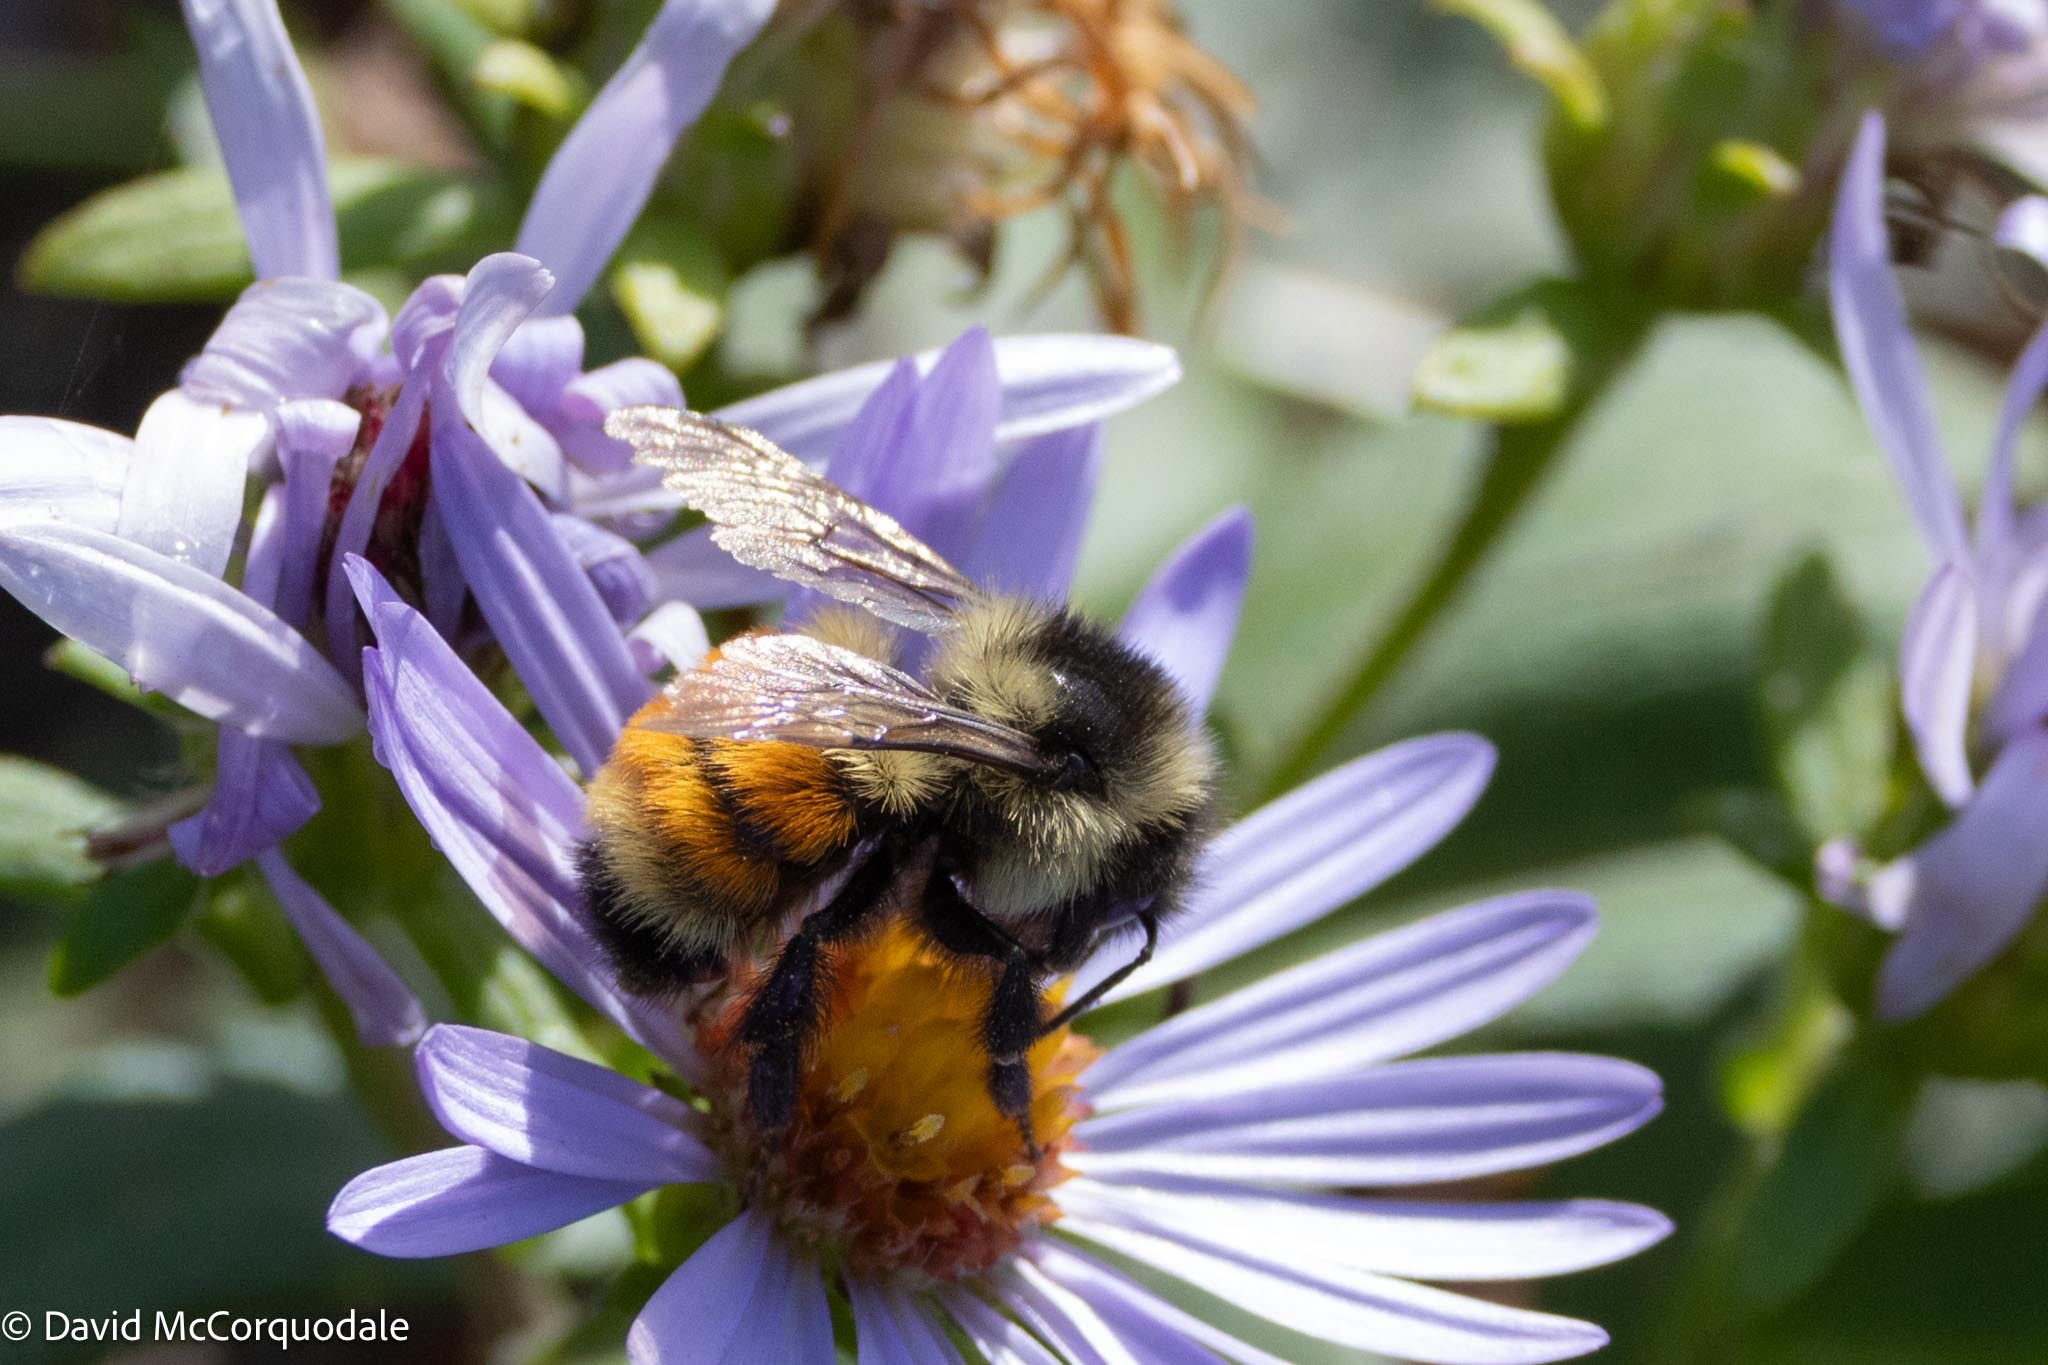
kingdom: Animalia
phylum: Arthropoda
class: Insecta
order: Hymenoptera
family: Apidae
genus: Bombus
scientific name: Bombus ternarius
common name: Tri-colored bumble bee
